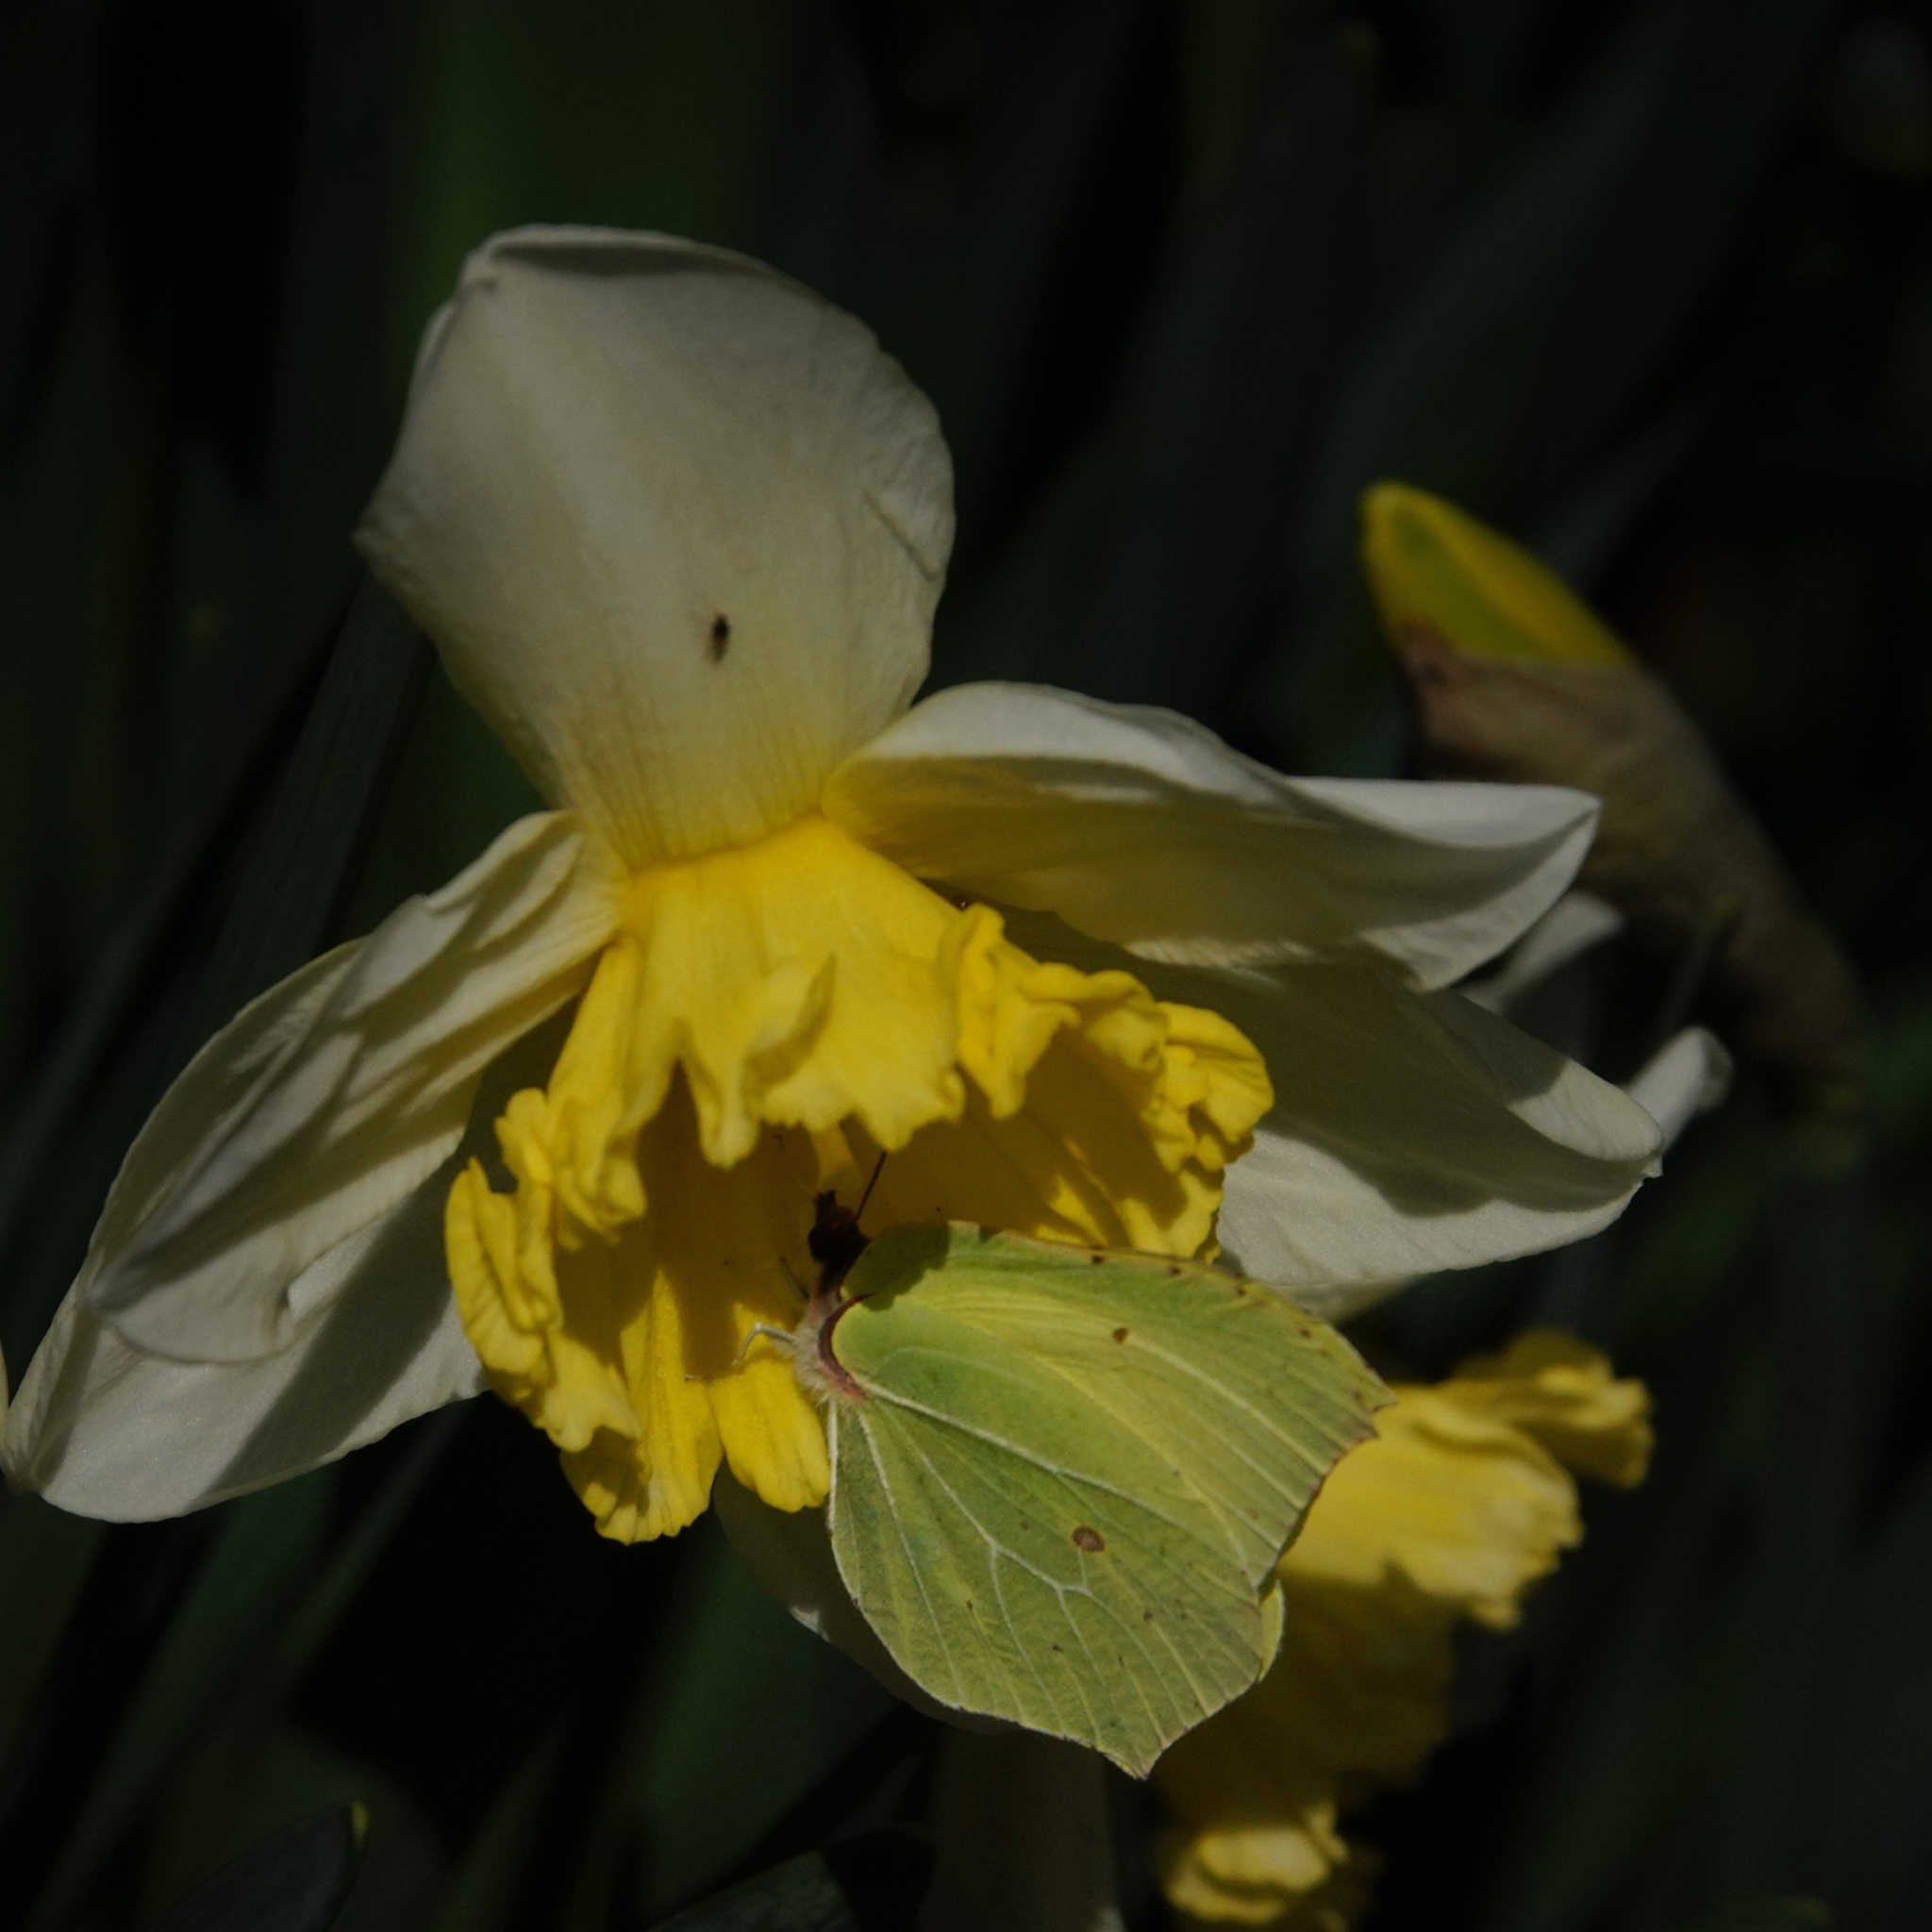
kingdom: Animalia
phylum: Arthropoda
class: Insecta
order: Lepidoptera
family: Pieridae
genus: Gonepteryx
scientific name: Gonepteryx rhamni
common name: Brimstone
